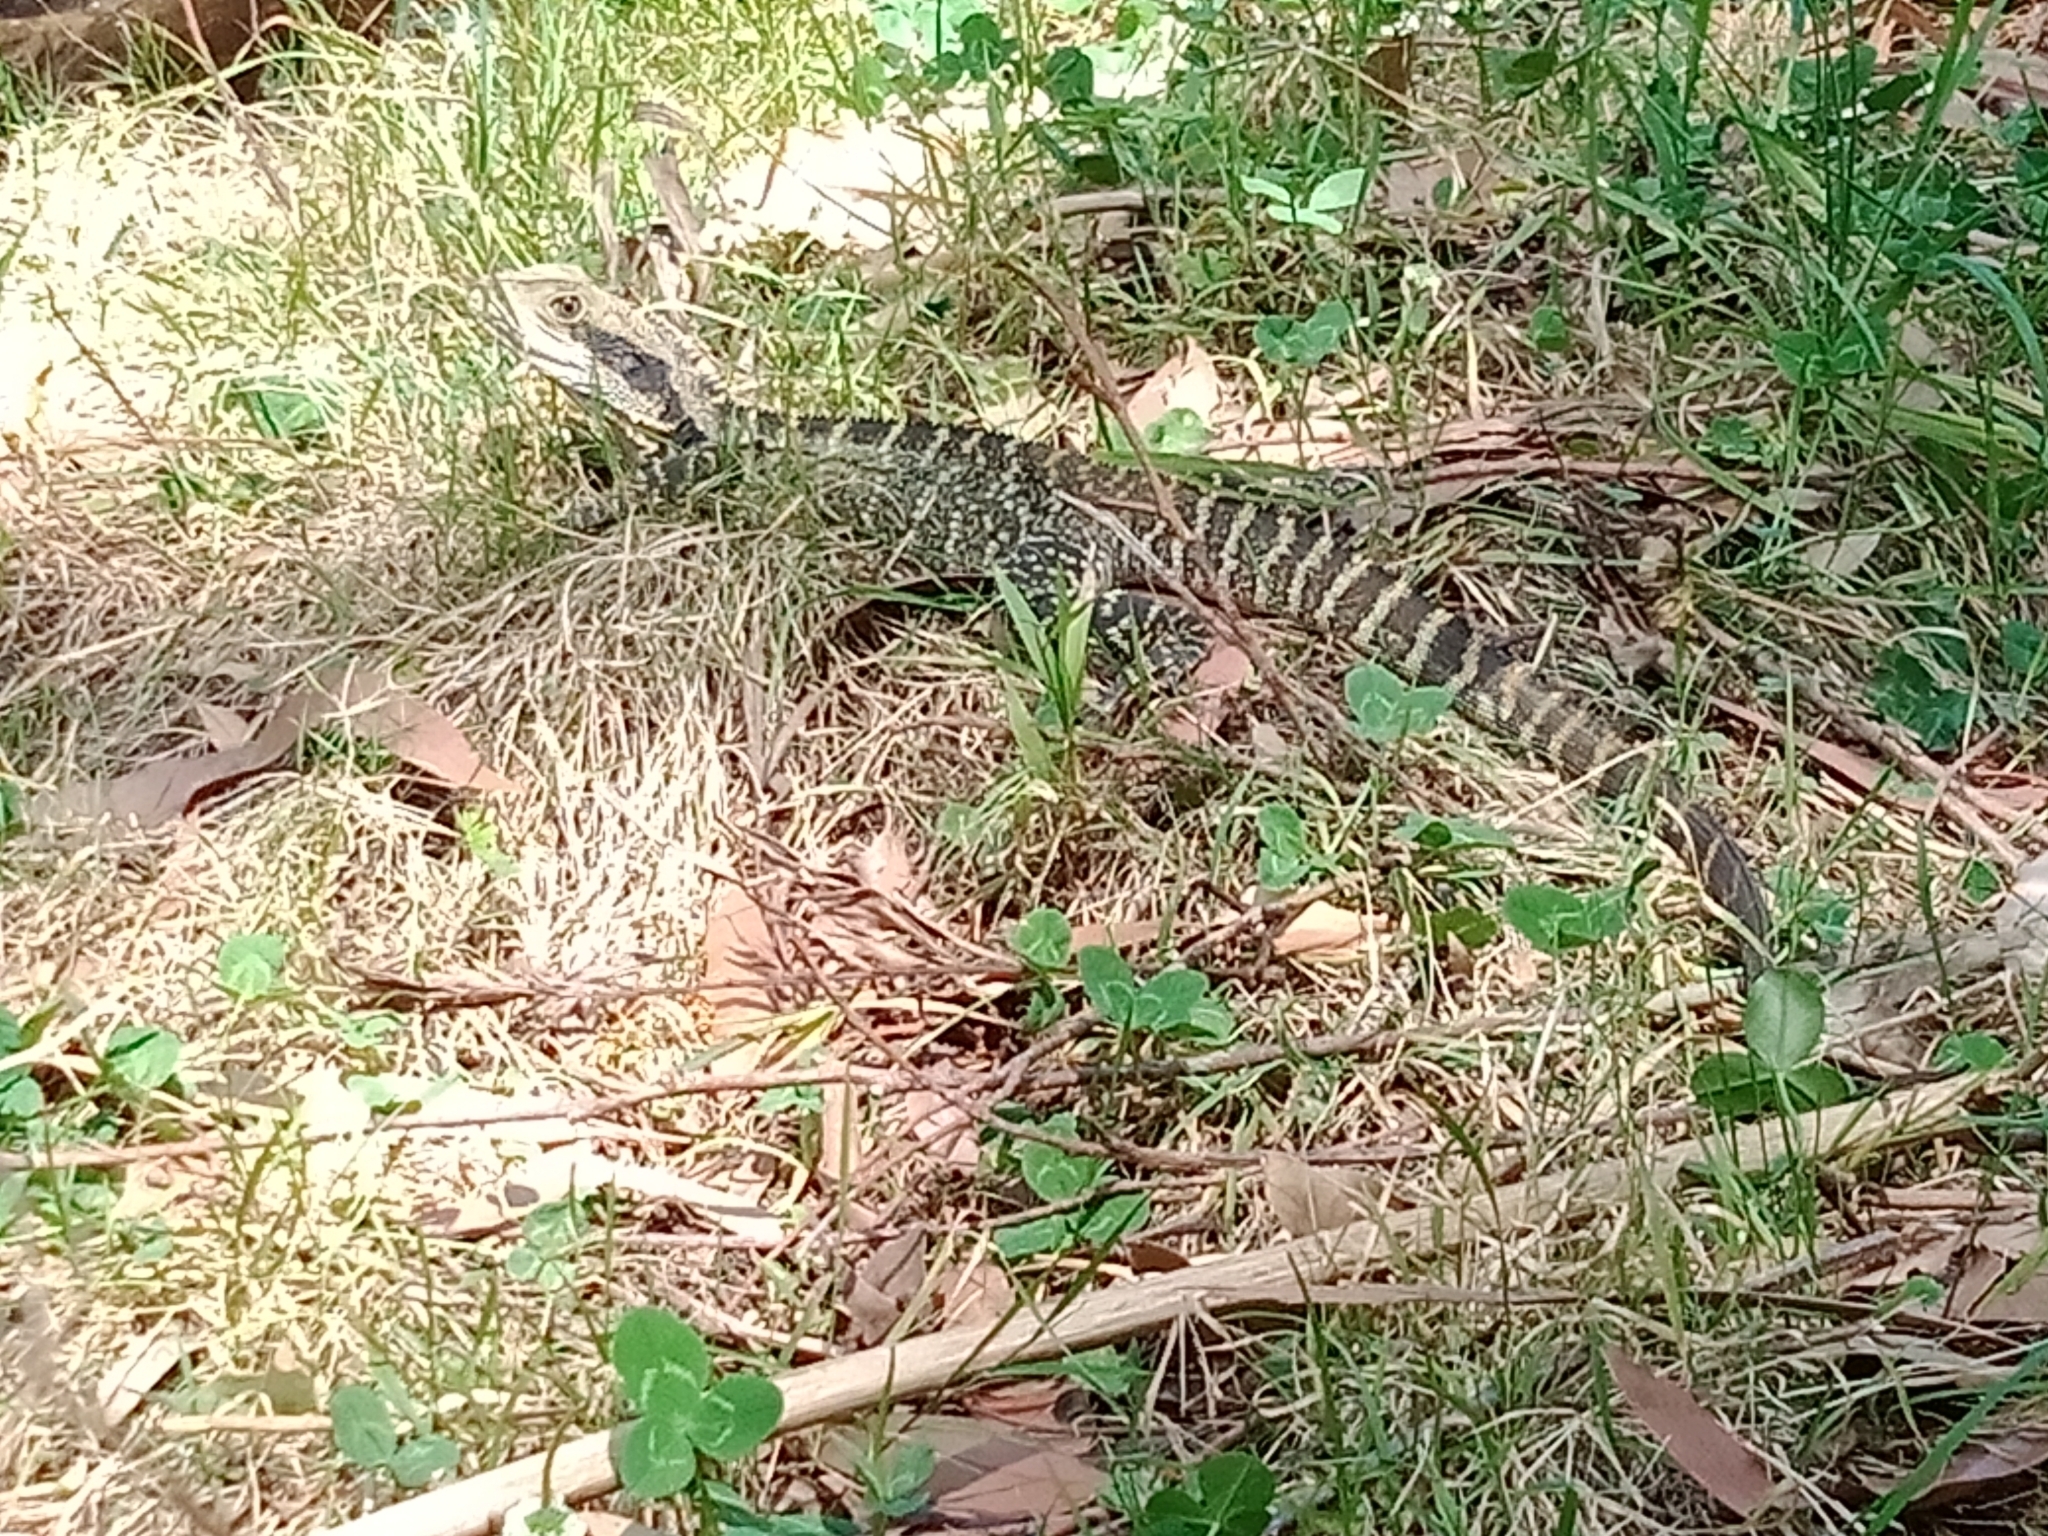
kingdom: Animalia
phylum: Chordata
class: Squamata
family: Agamidae
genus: Intellagama
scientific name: Intellagama lesueurii
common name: Eastern water dragon
